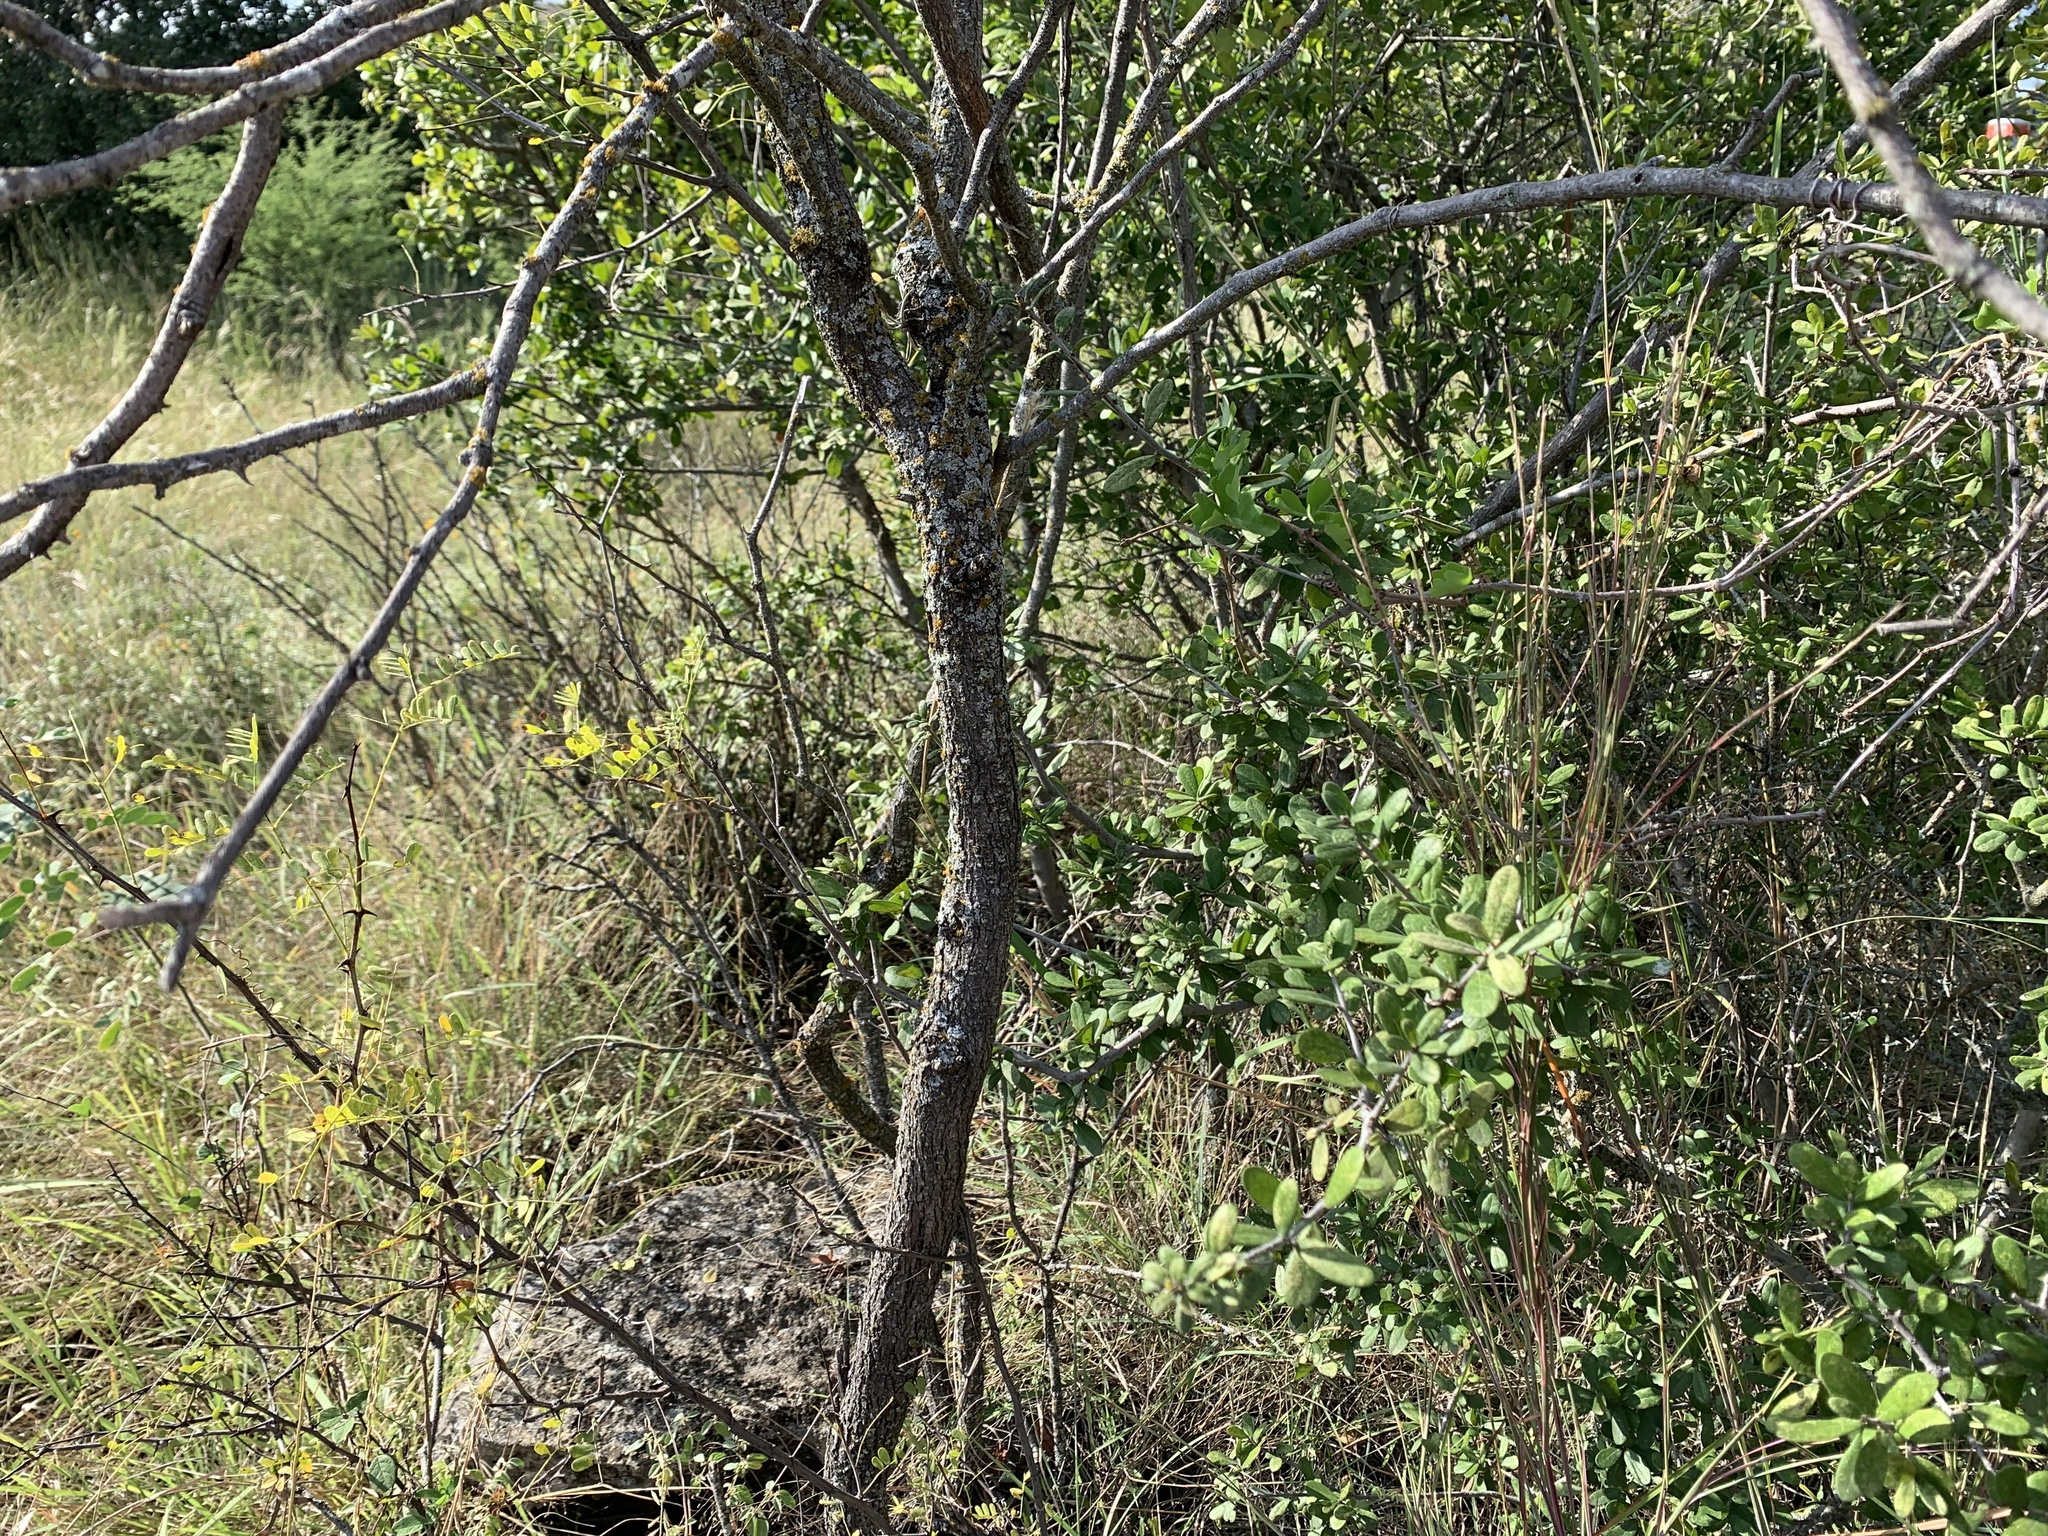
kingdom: Plantae
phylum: Tracheophyta
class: Magnoliopsida
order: Fabales
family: Fabaceae
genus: Senegalia
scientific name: Senegalia roemeriana
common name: Roemer's acacia
